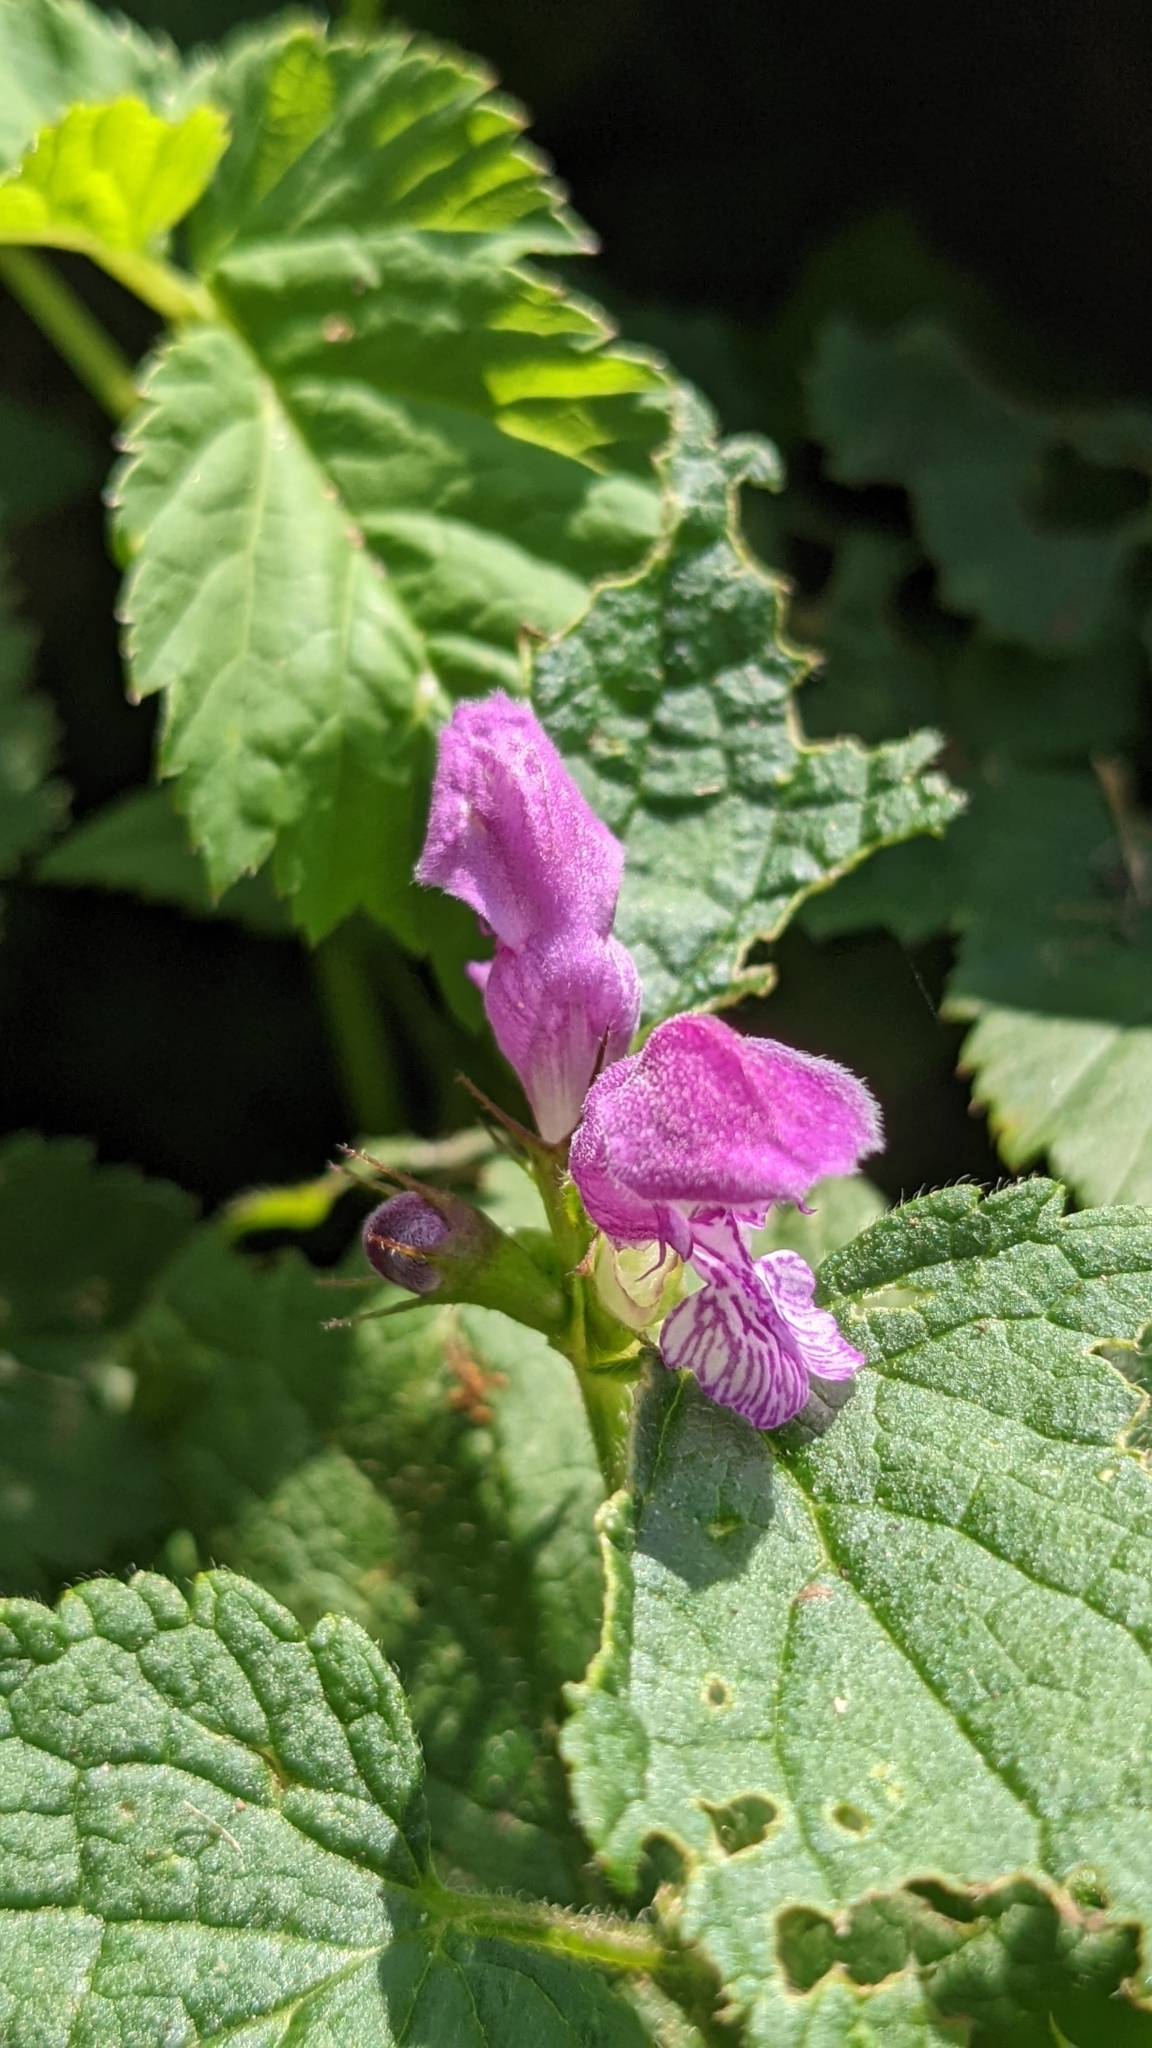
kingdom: Plantae
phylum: Tracheophyta
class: Magnoliopsida
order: Lamiales
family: Lamiaceae
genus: Lamium
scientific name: Lamium maculatum
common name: Spotted dead-nettle
